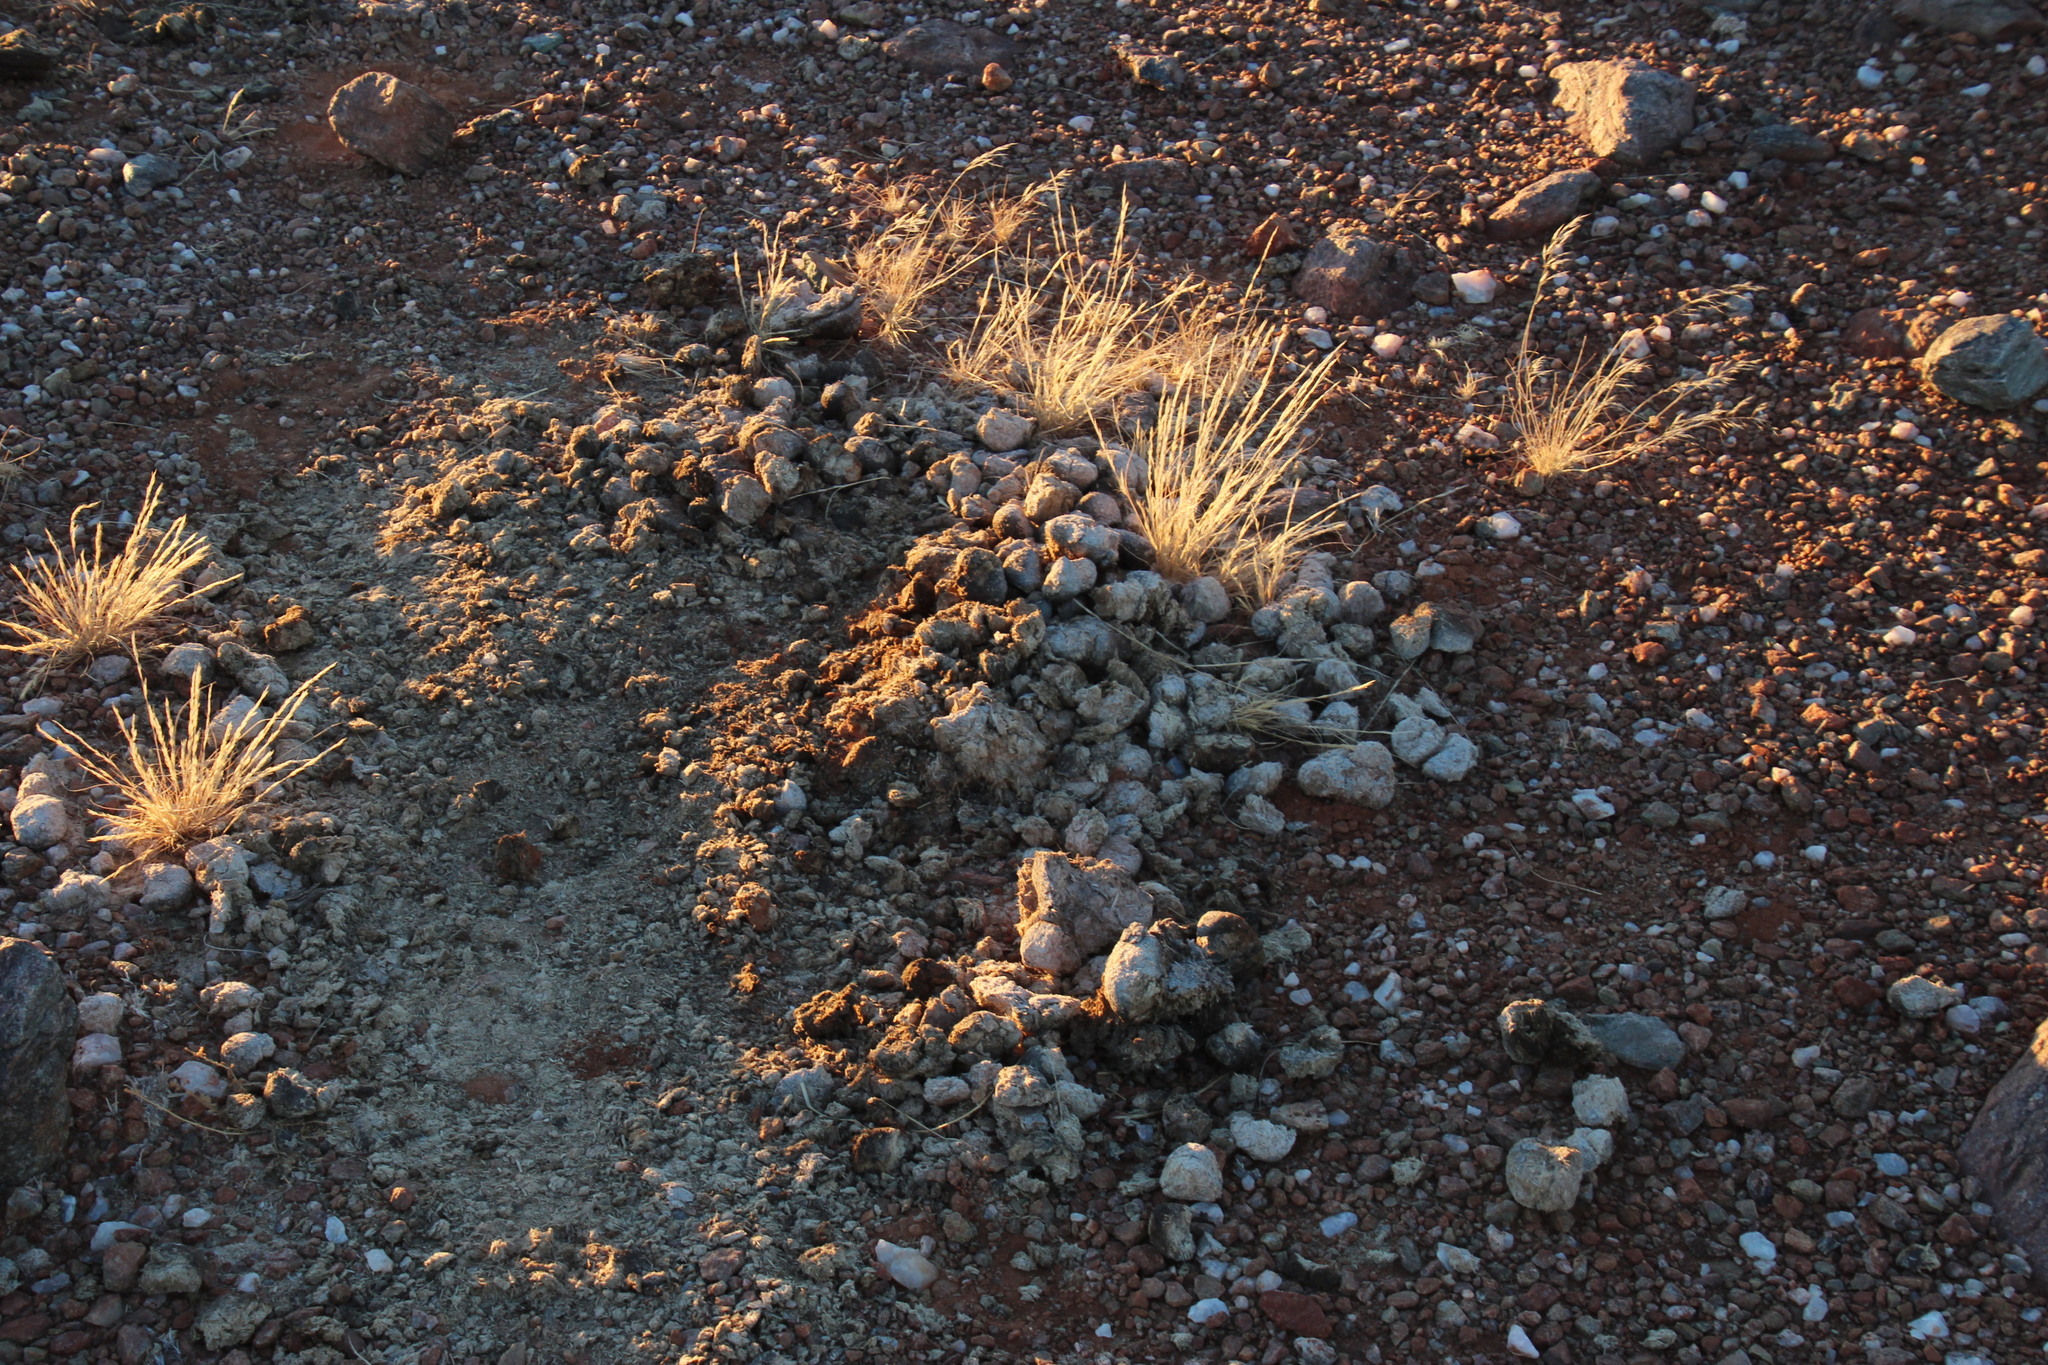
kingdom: Animalia
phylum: Chordata
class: Mammalia
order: Artiodactyla
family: Bovidae
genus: Bos
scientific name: Bos taurus
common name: Domesticated cattle
